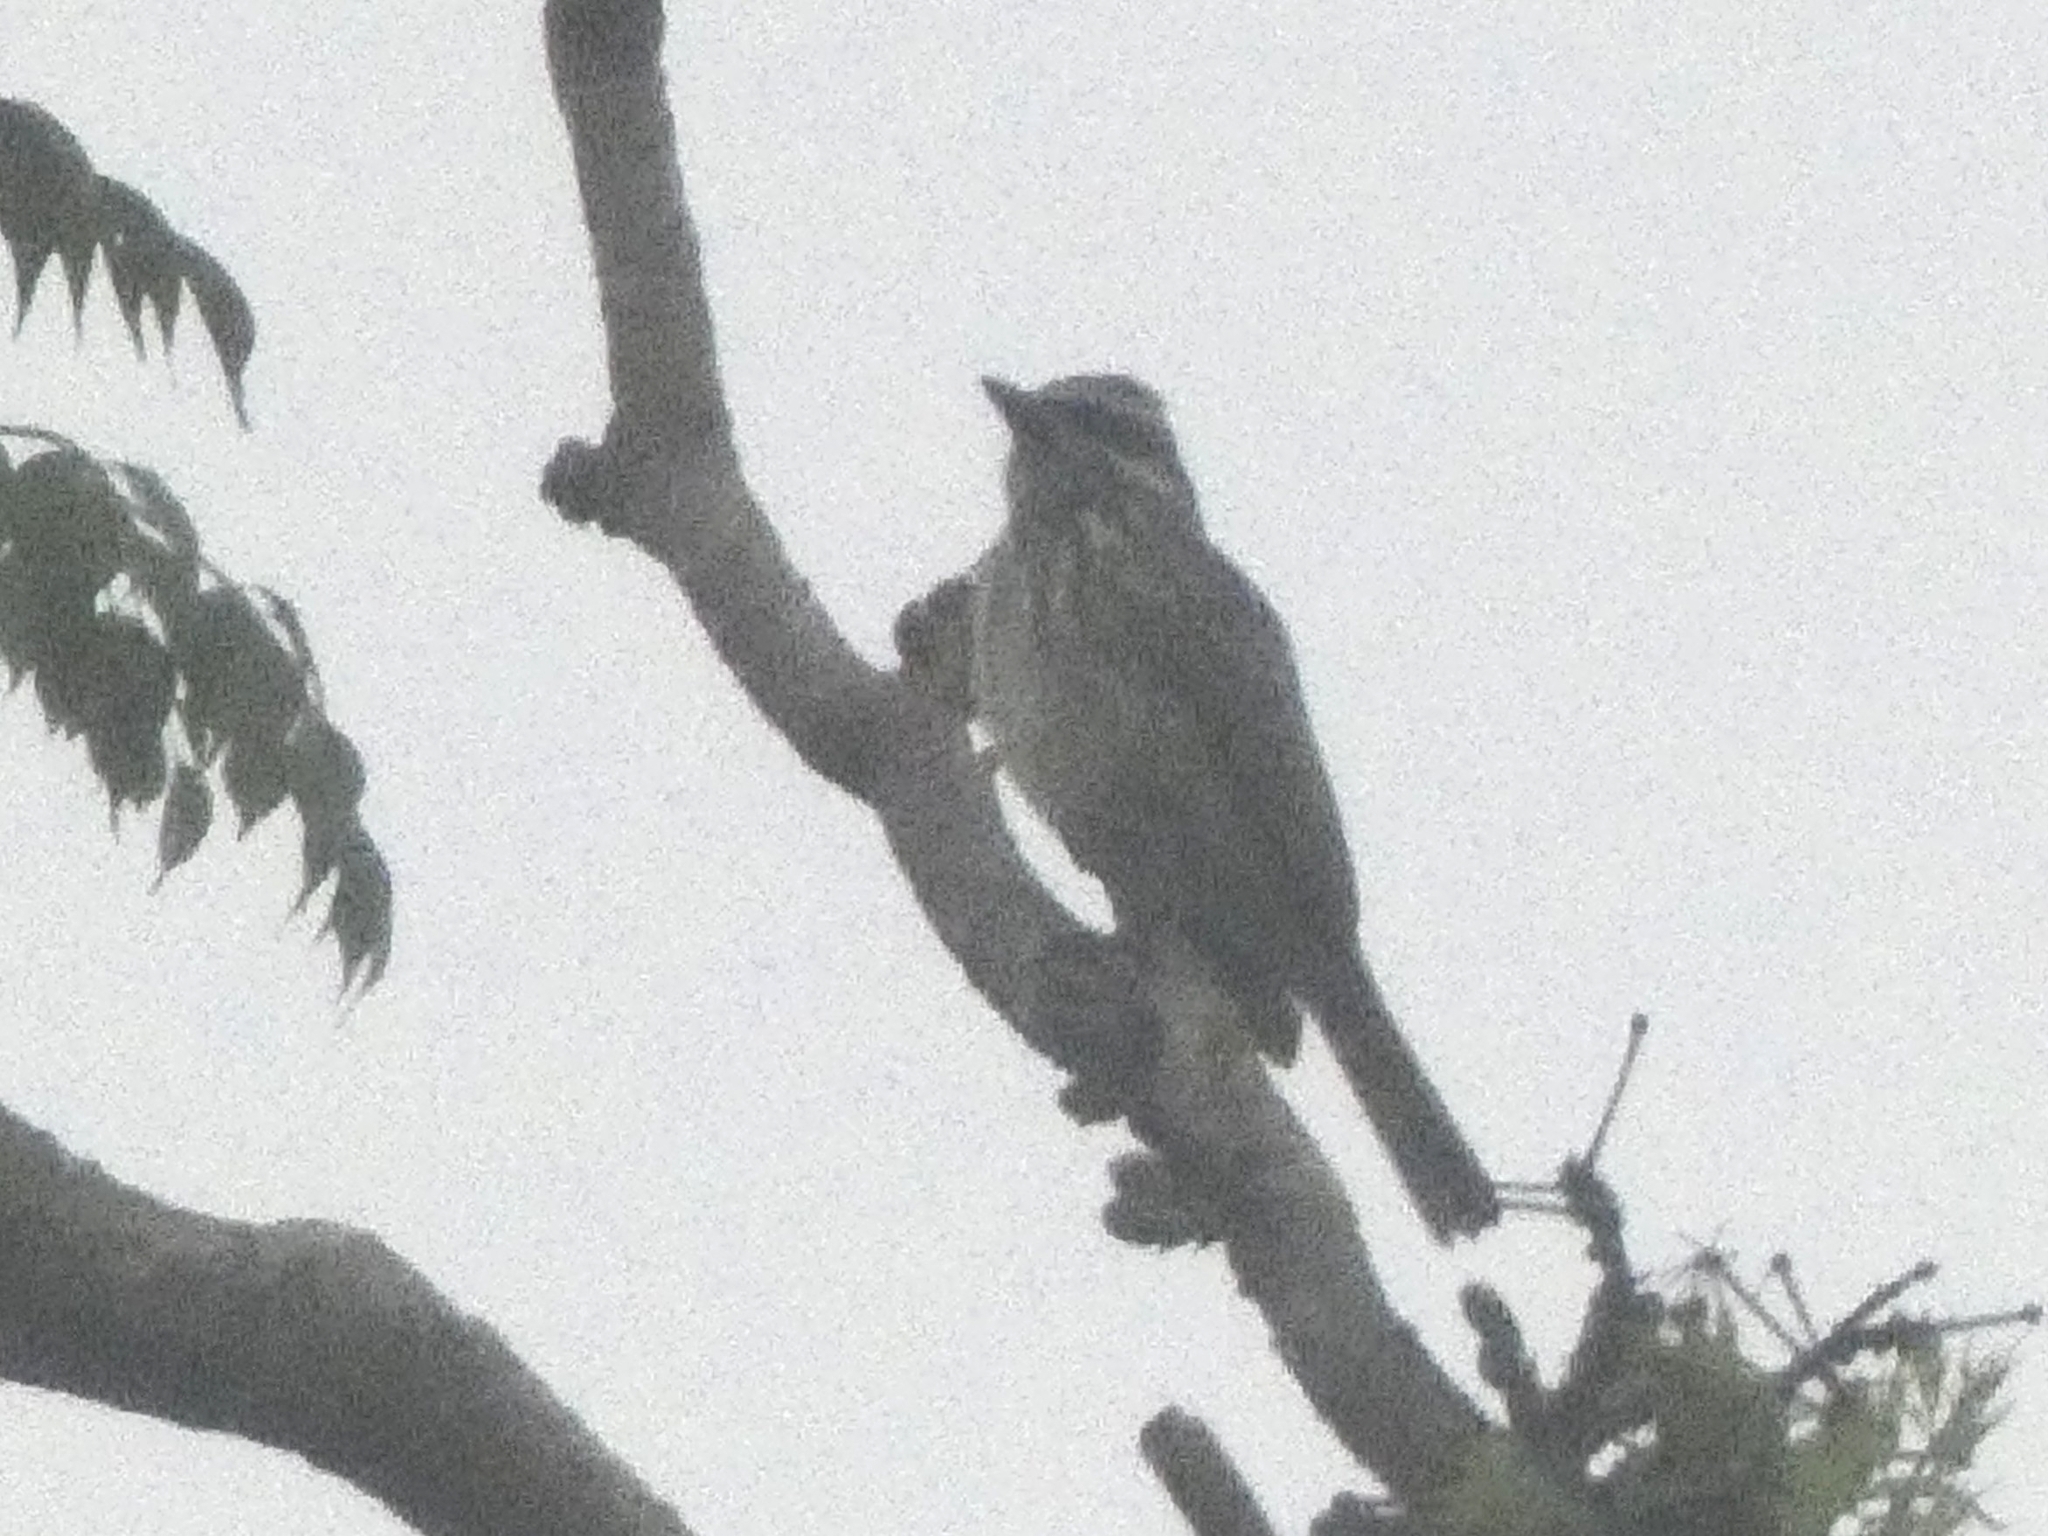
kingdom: Animalia
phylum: Chordata
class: Aves
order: Passeriformes
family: Tyrannidae
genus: Empidonomus
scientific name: Empidonomus varius
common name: Variegated flycatcher
